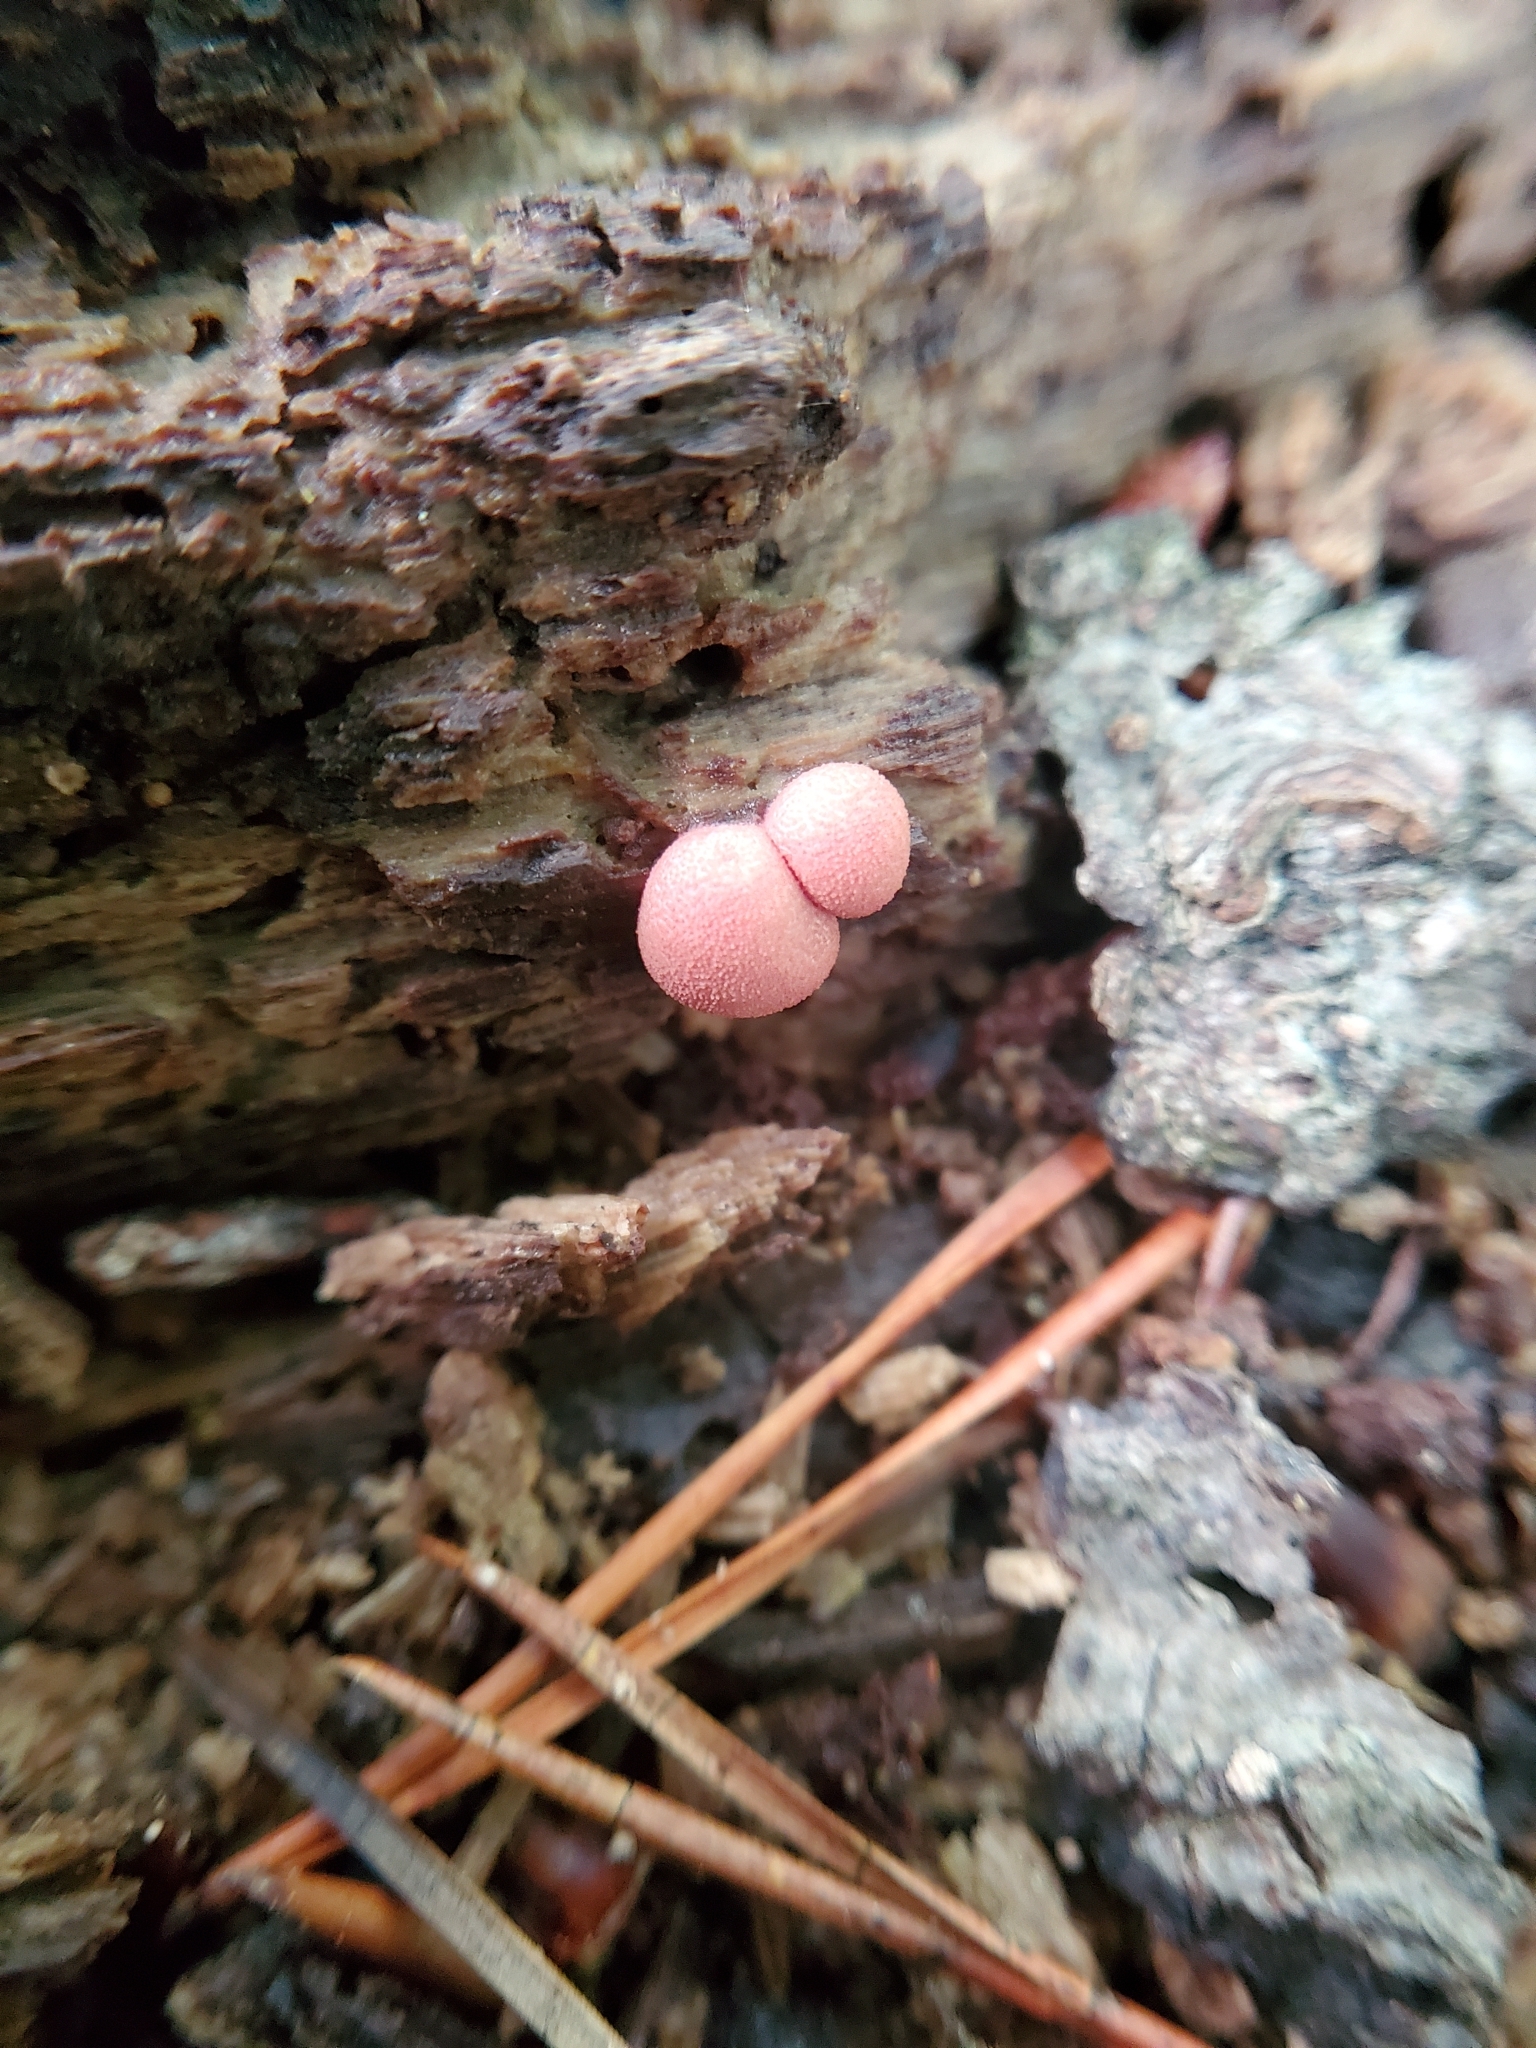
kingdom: Protozoa
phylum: Mycetozoa
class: Myxomycetes
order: Cribrariales
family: Tubiferaceae
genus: Lycogala
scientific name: Lycogala epidendrum
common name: Wolf's milk
